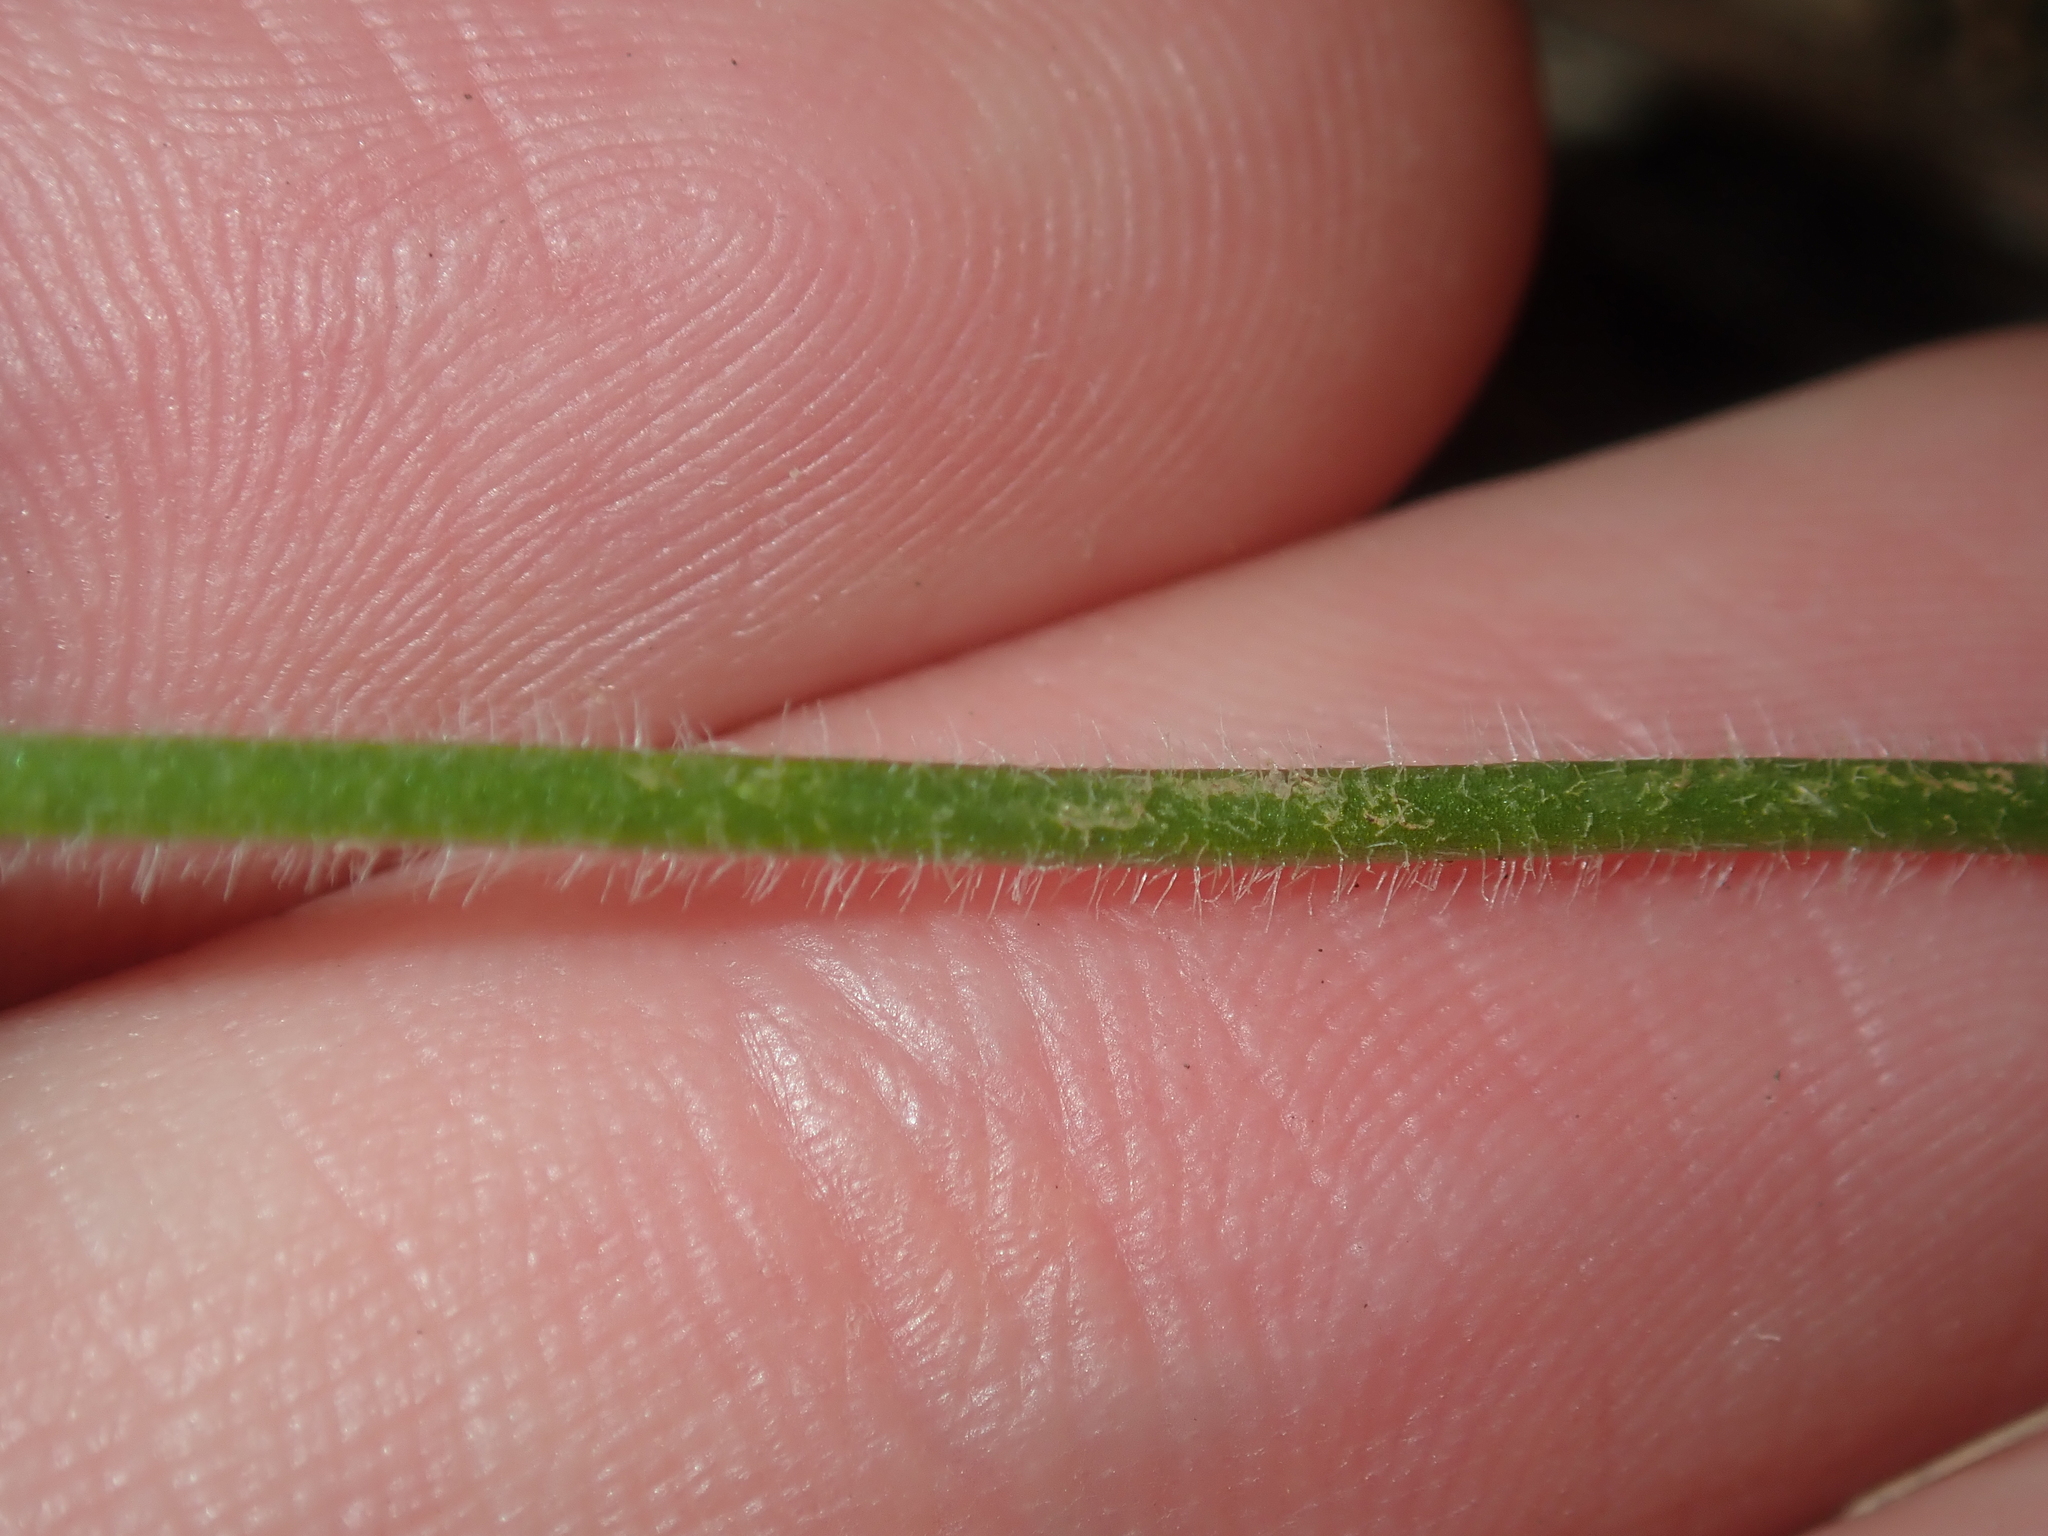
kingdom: Plantae
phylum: Tracheophyta
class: Liliopsida
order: Asparagales
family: Orchidaceae
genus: Pheladenia
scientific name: Pheladenia deformis
